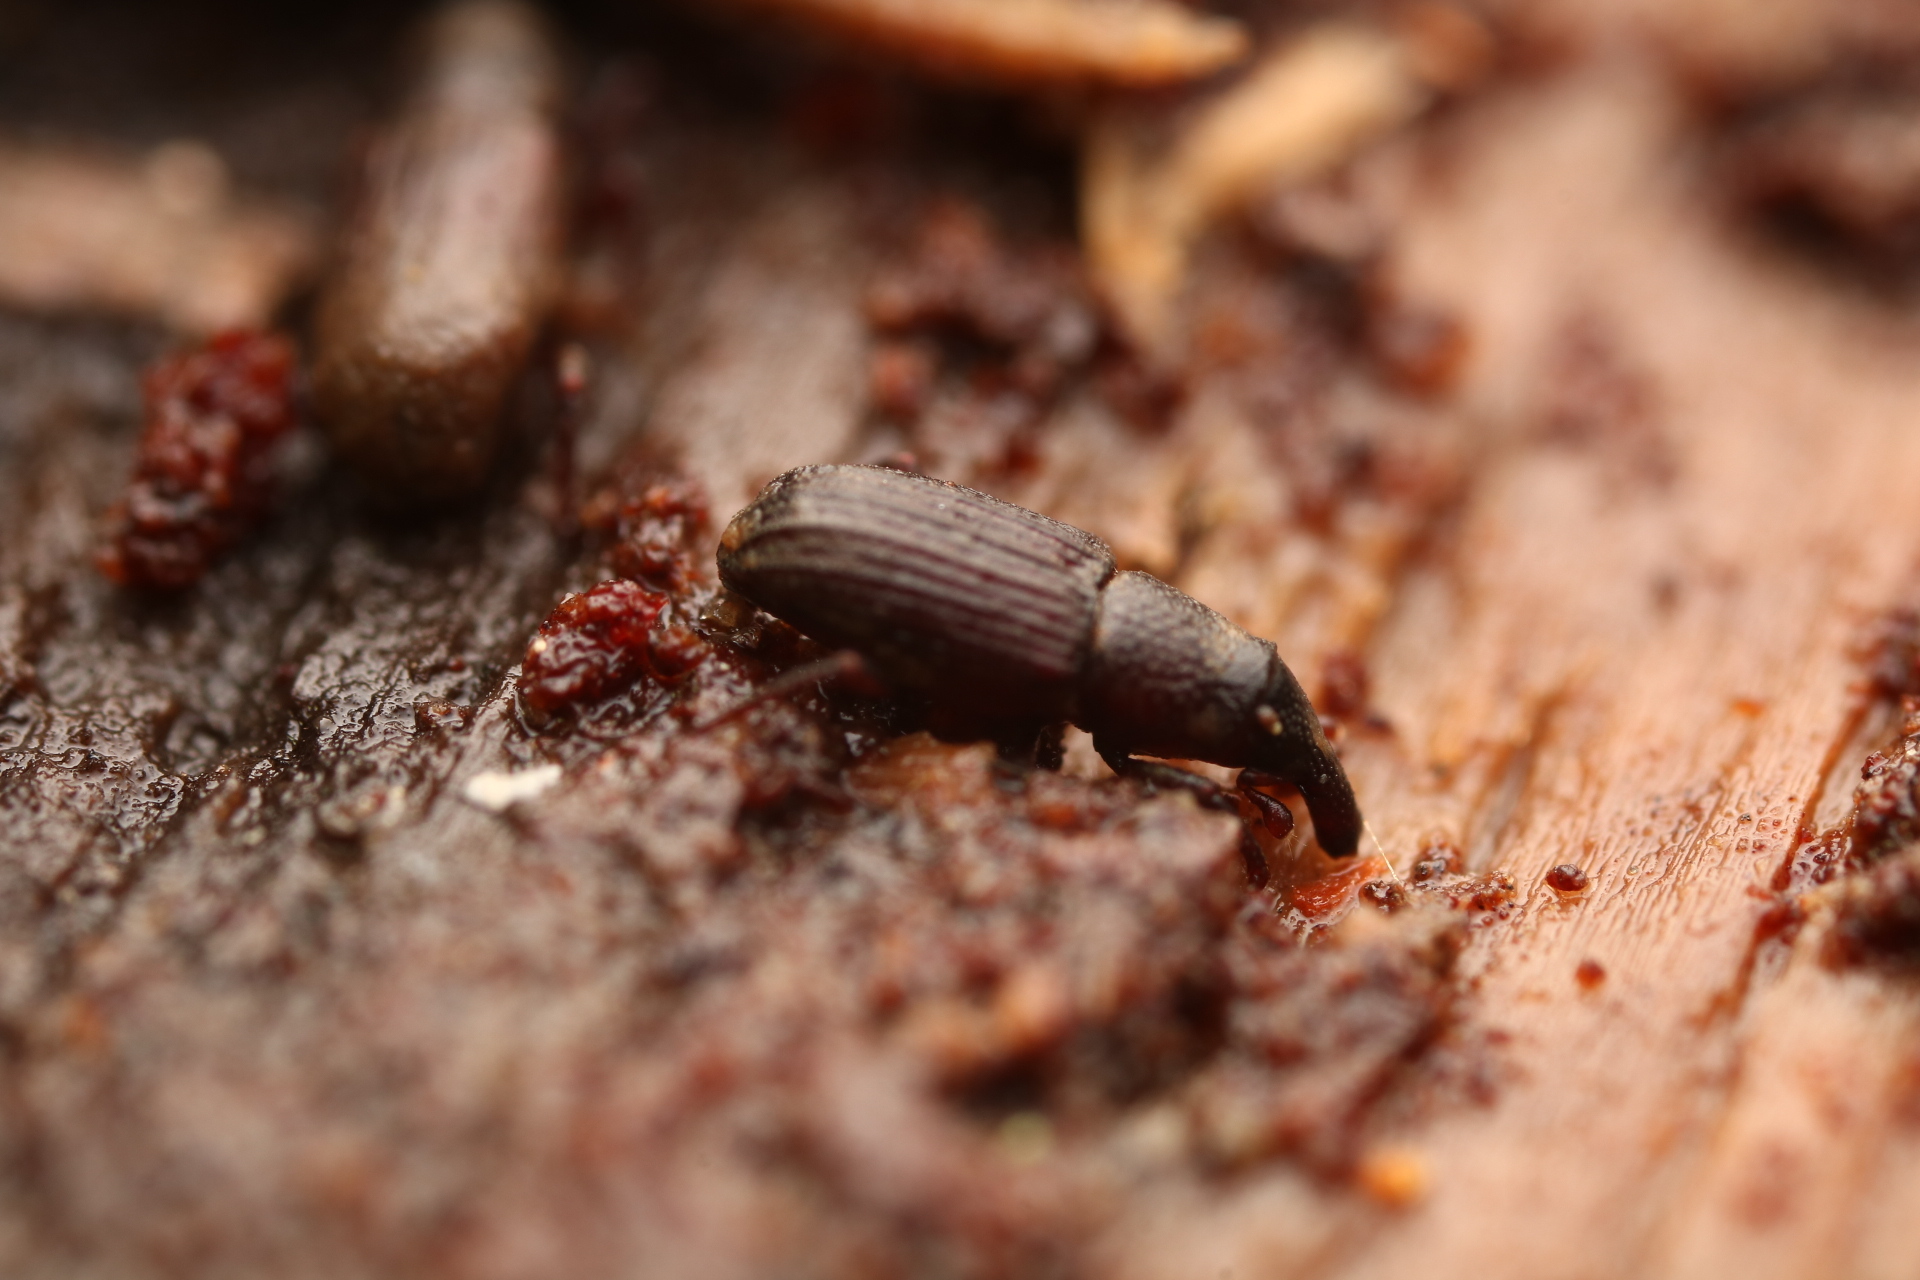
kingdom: Animalia
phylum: Arthropoda
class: Insecta
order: Coleoptera
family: Dryophthoridae
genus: Dryophthorus
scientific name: Dryophthorus americanus
